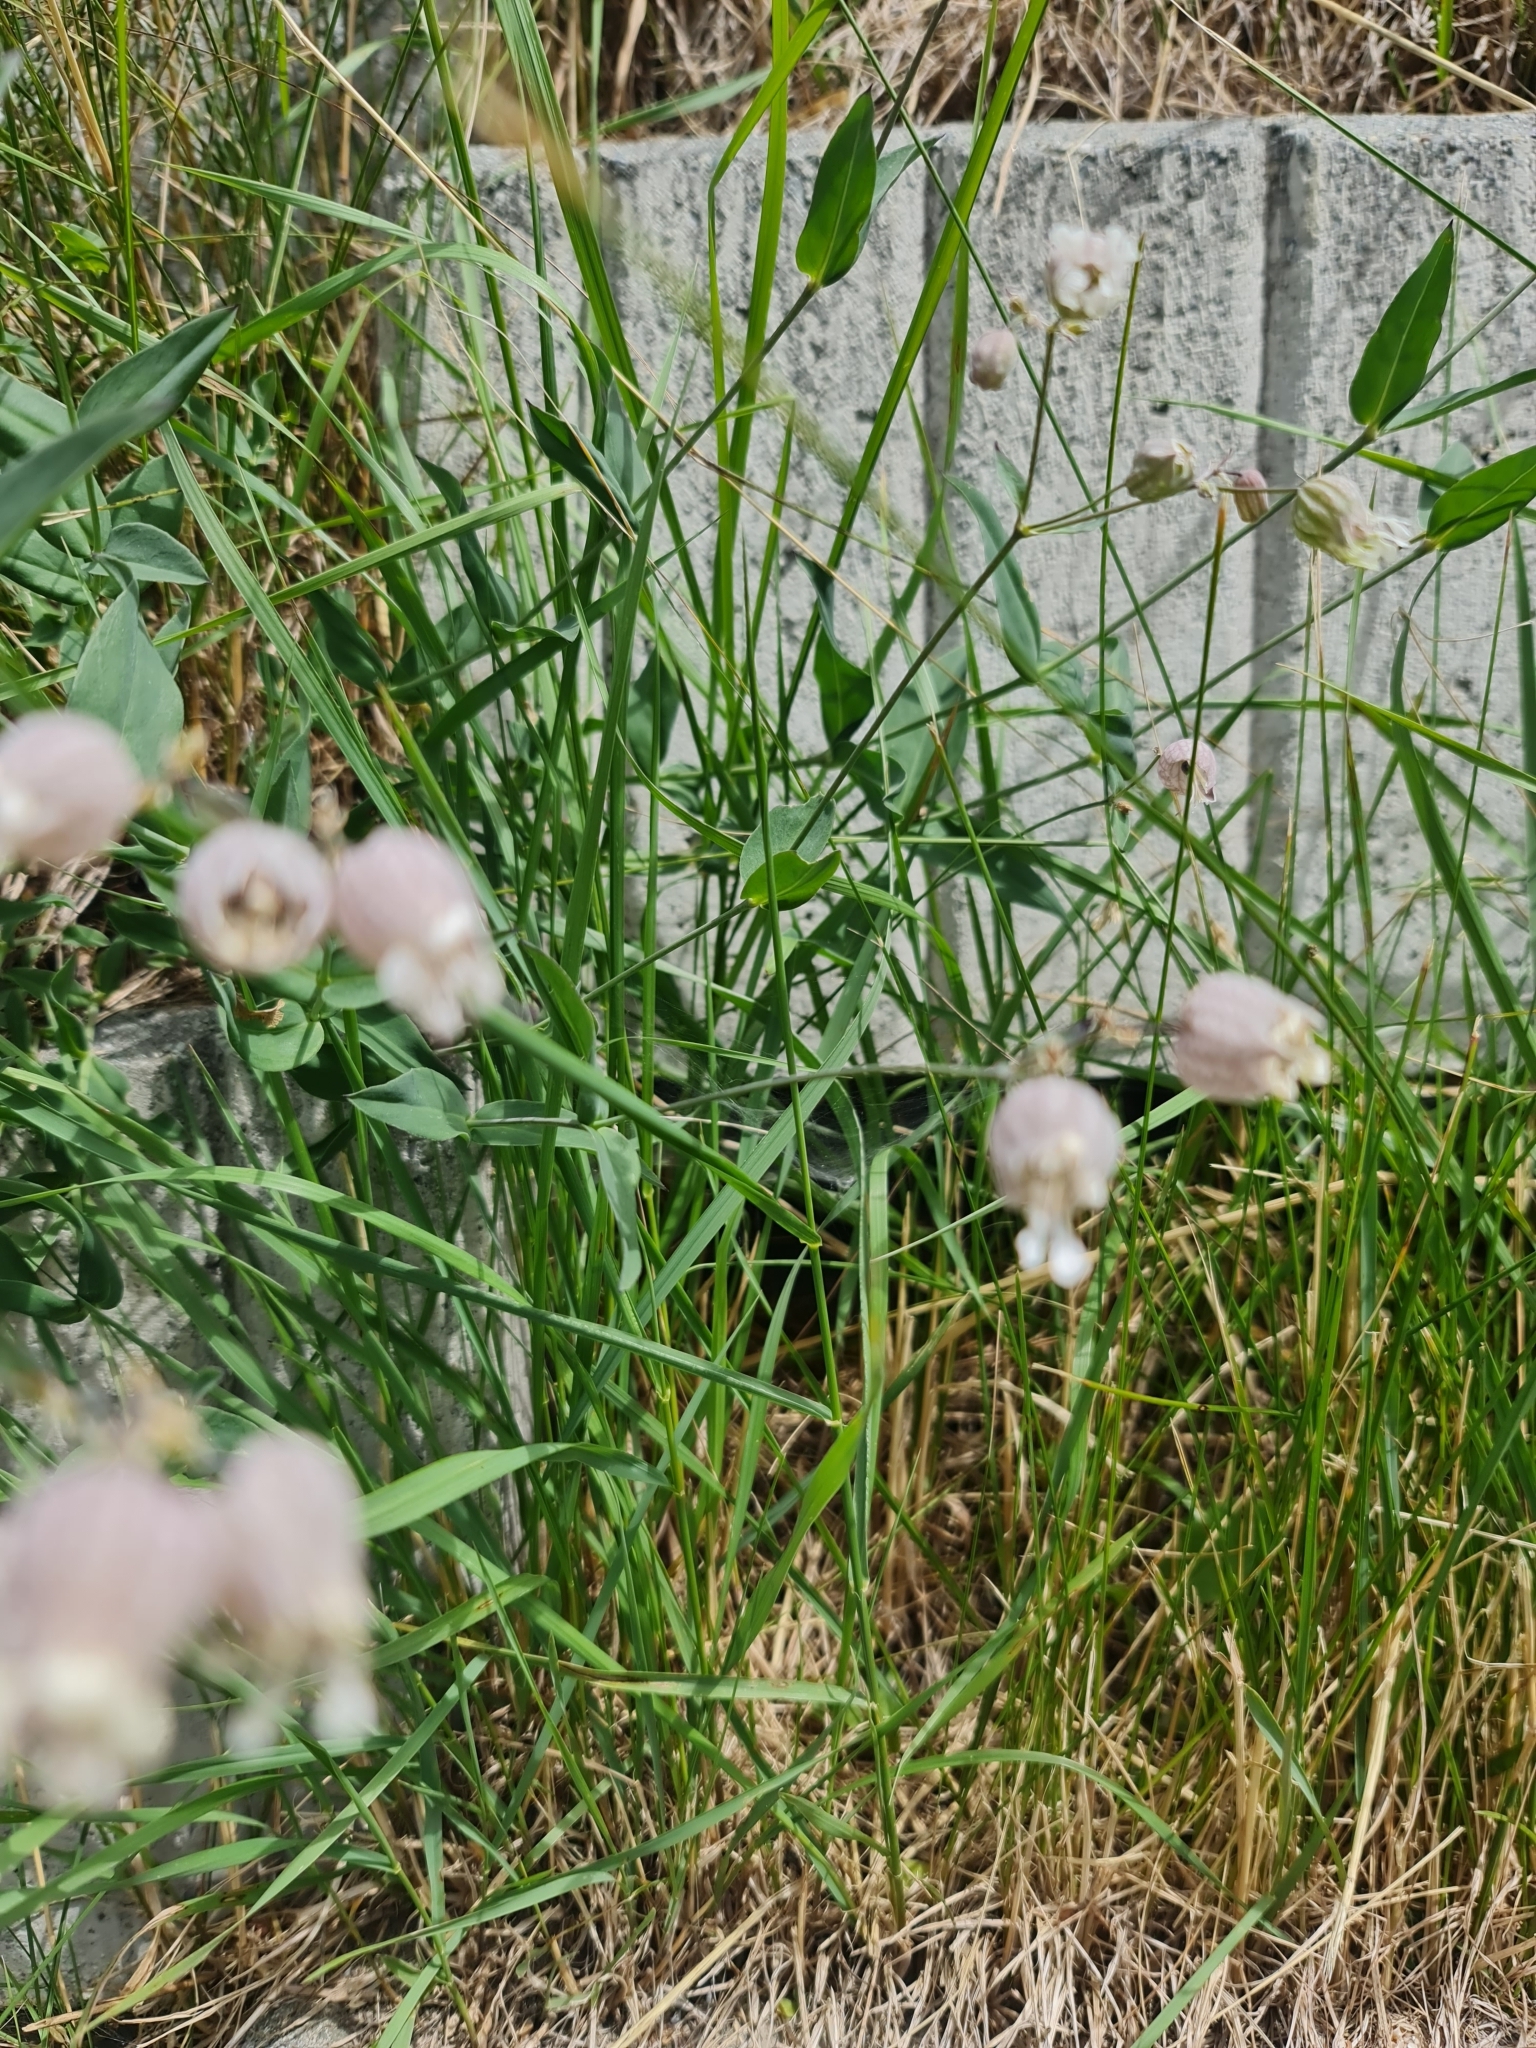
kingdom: Plantae
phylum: Tracheophyta
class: Magnoliopsida
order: Caryophyllales
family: Caryophyllaceae
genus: Silene
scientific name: Silene vulgaris
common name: Bladder campion
